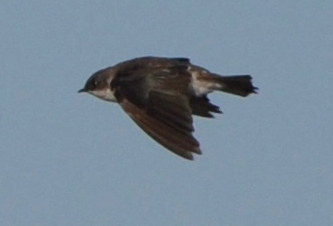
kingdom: Animalia
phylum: Chordata
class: Aves
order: Passeriformes
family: Hirundinidae
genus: Tachycineta
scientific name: Tachycineta bicolor
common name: Tree swallow
